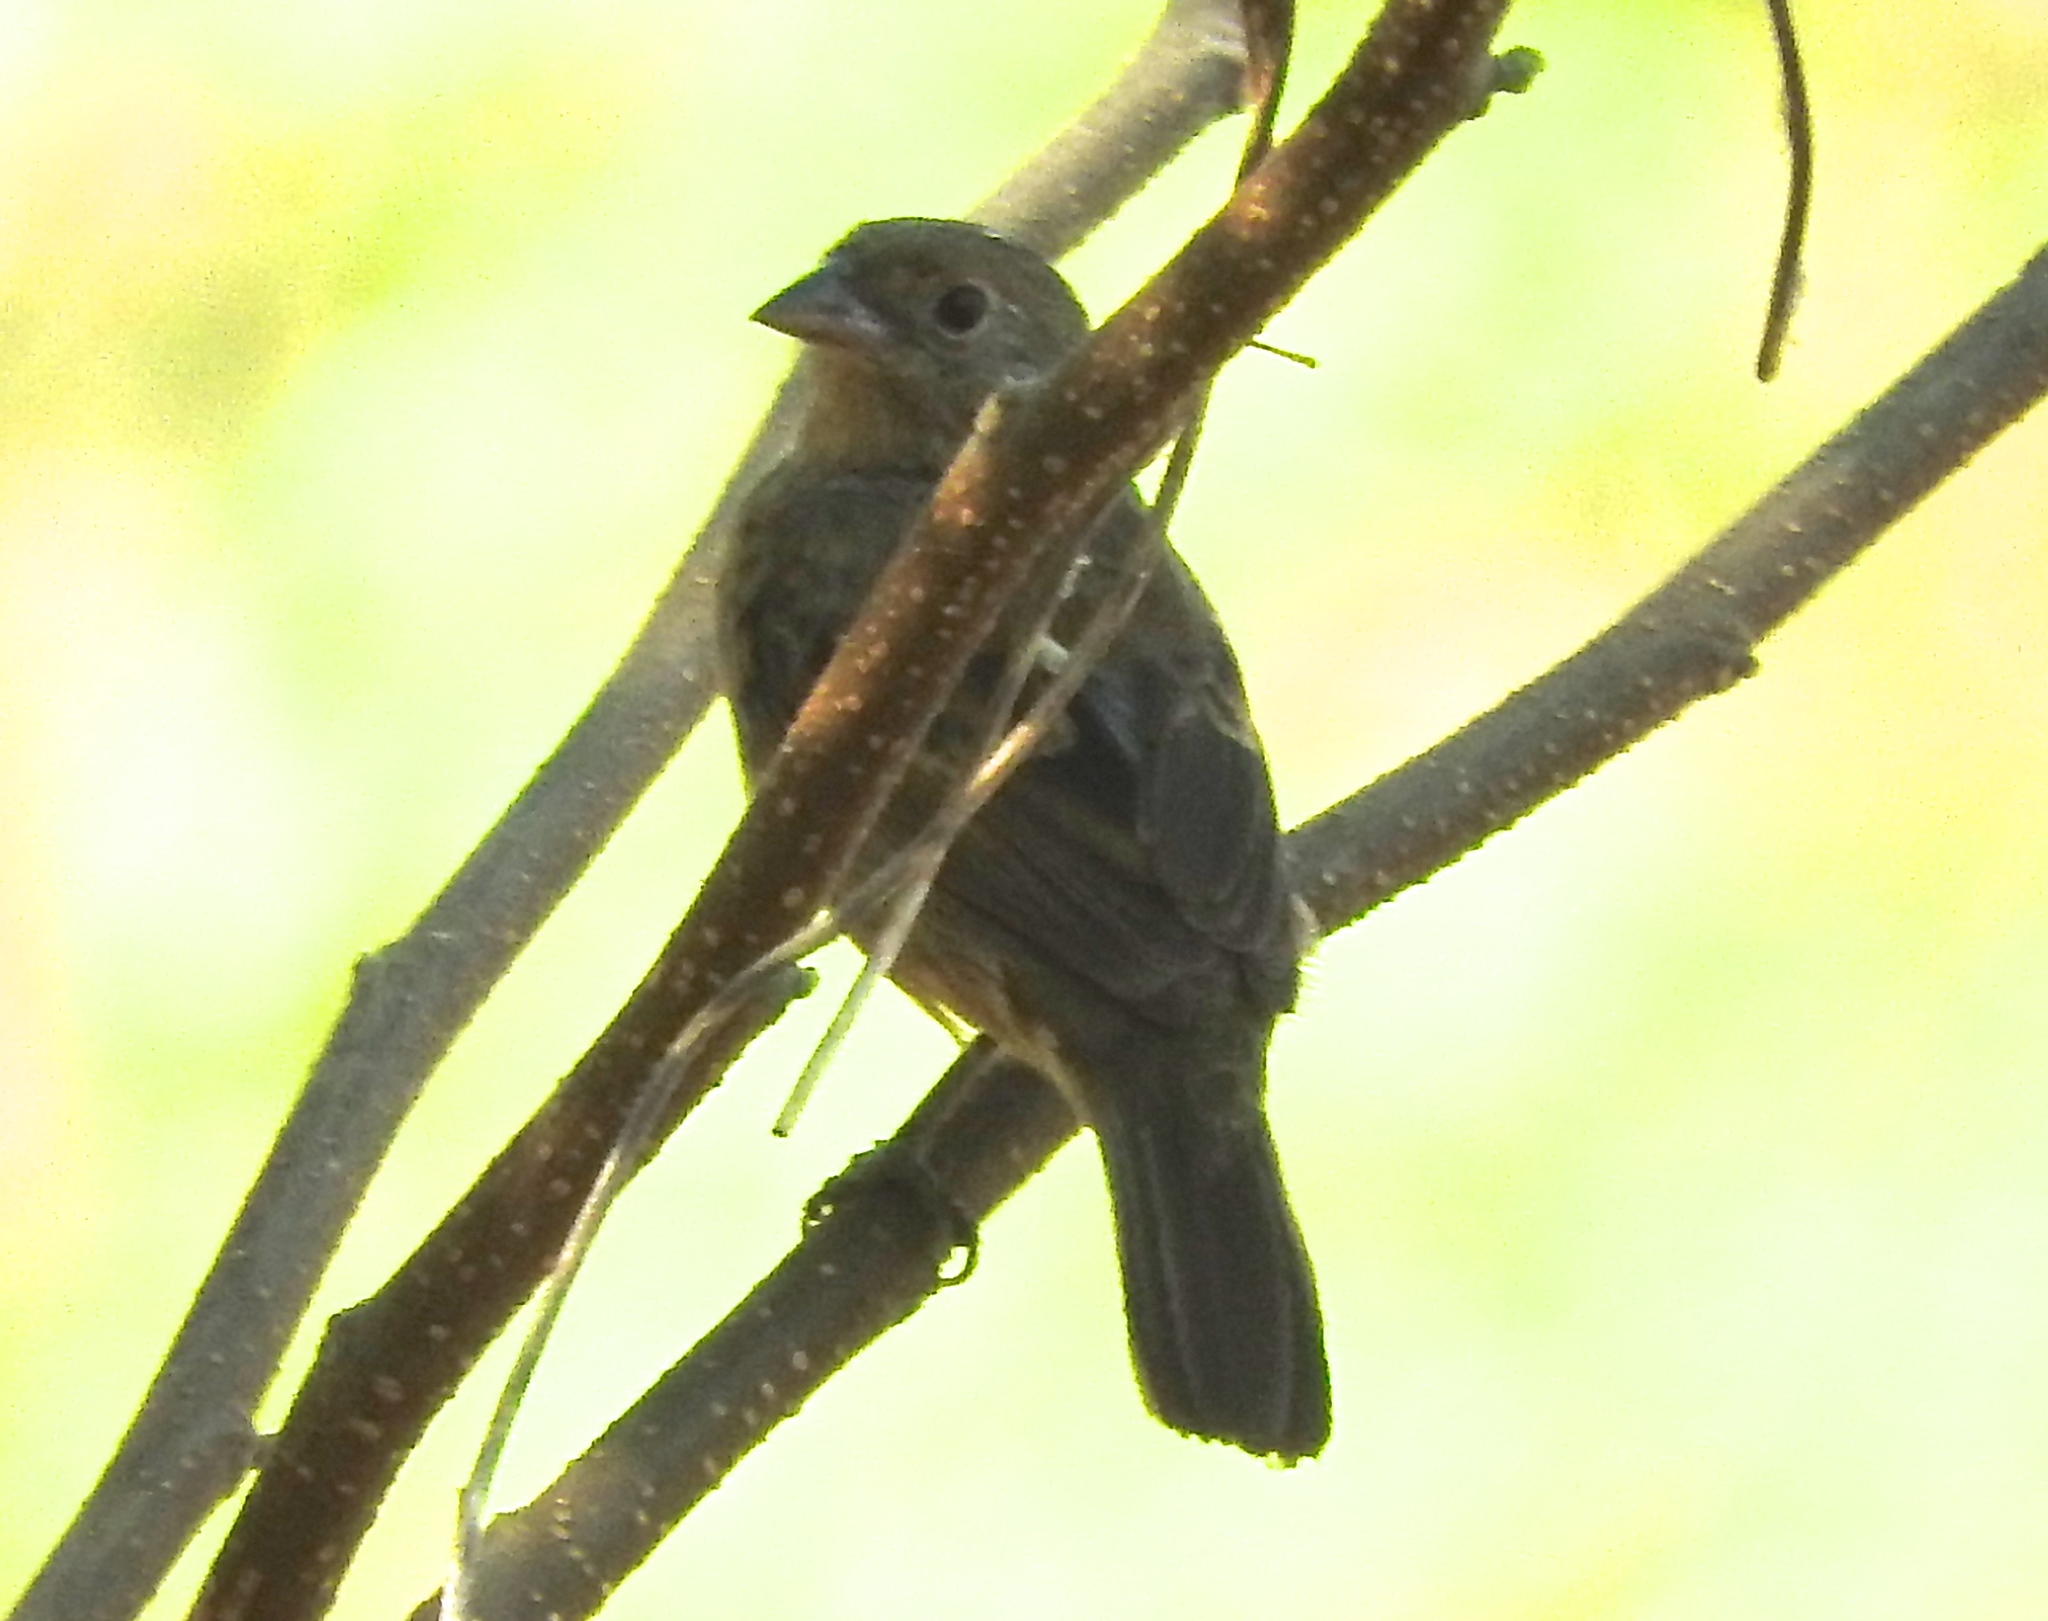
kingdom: Animalia
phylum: Chordata
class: Aves
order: Passeriformes
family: Thraupidae
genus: Volatinia
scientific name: Volatinia jacarina
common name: Blue-black grassquit
